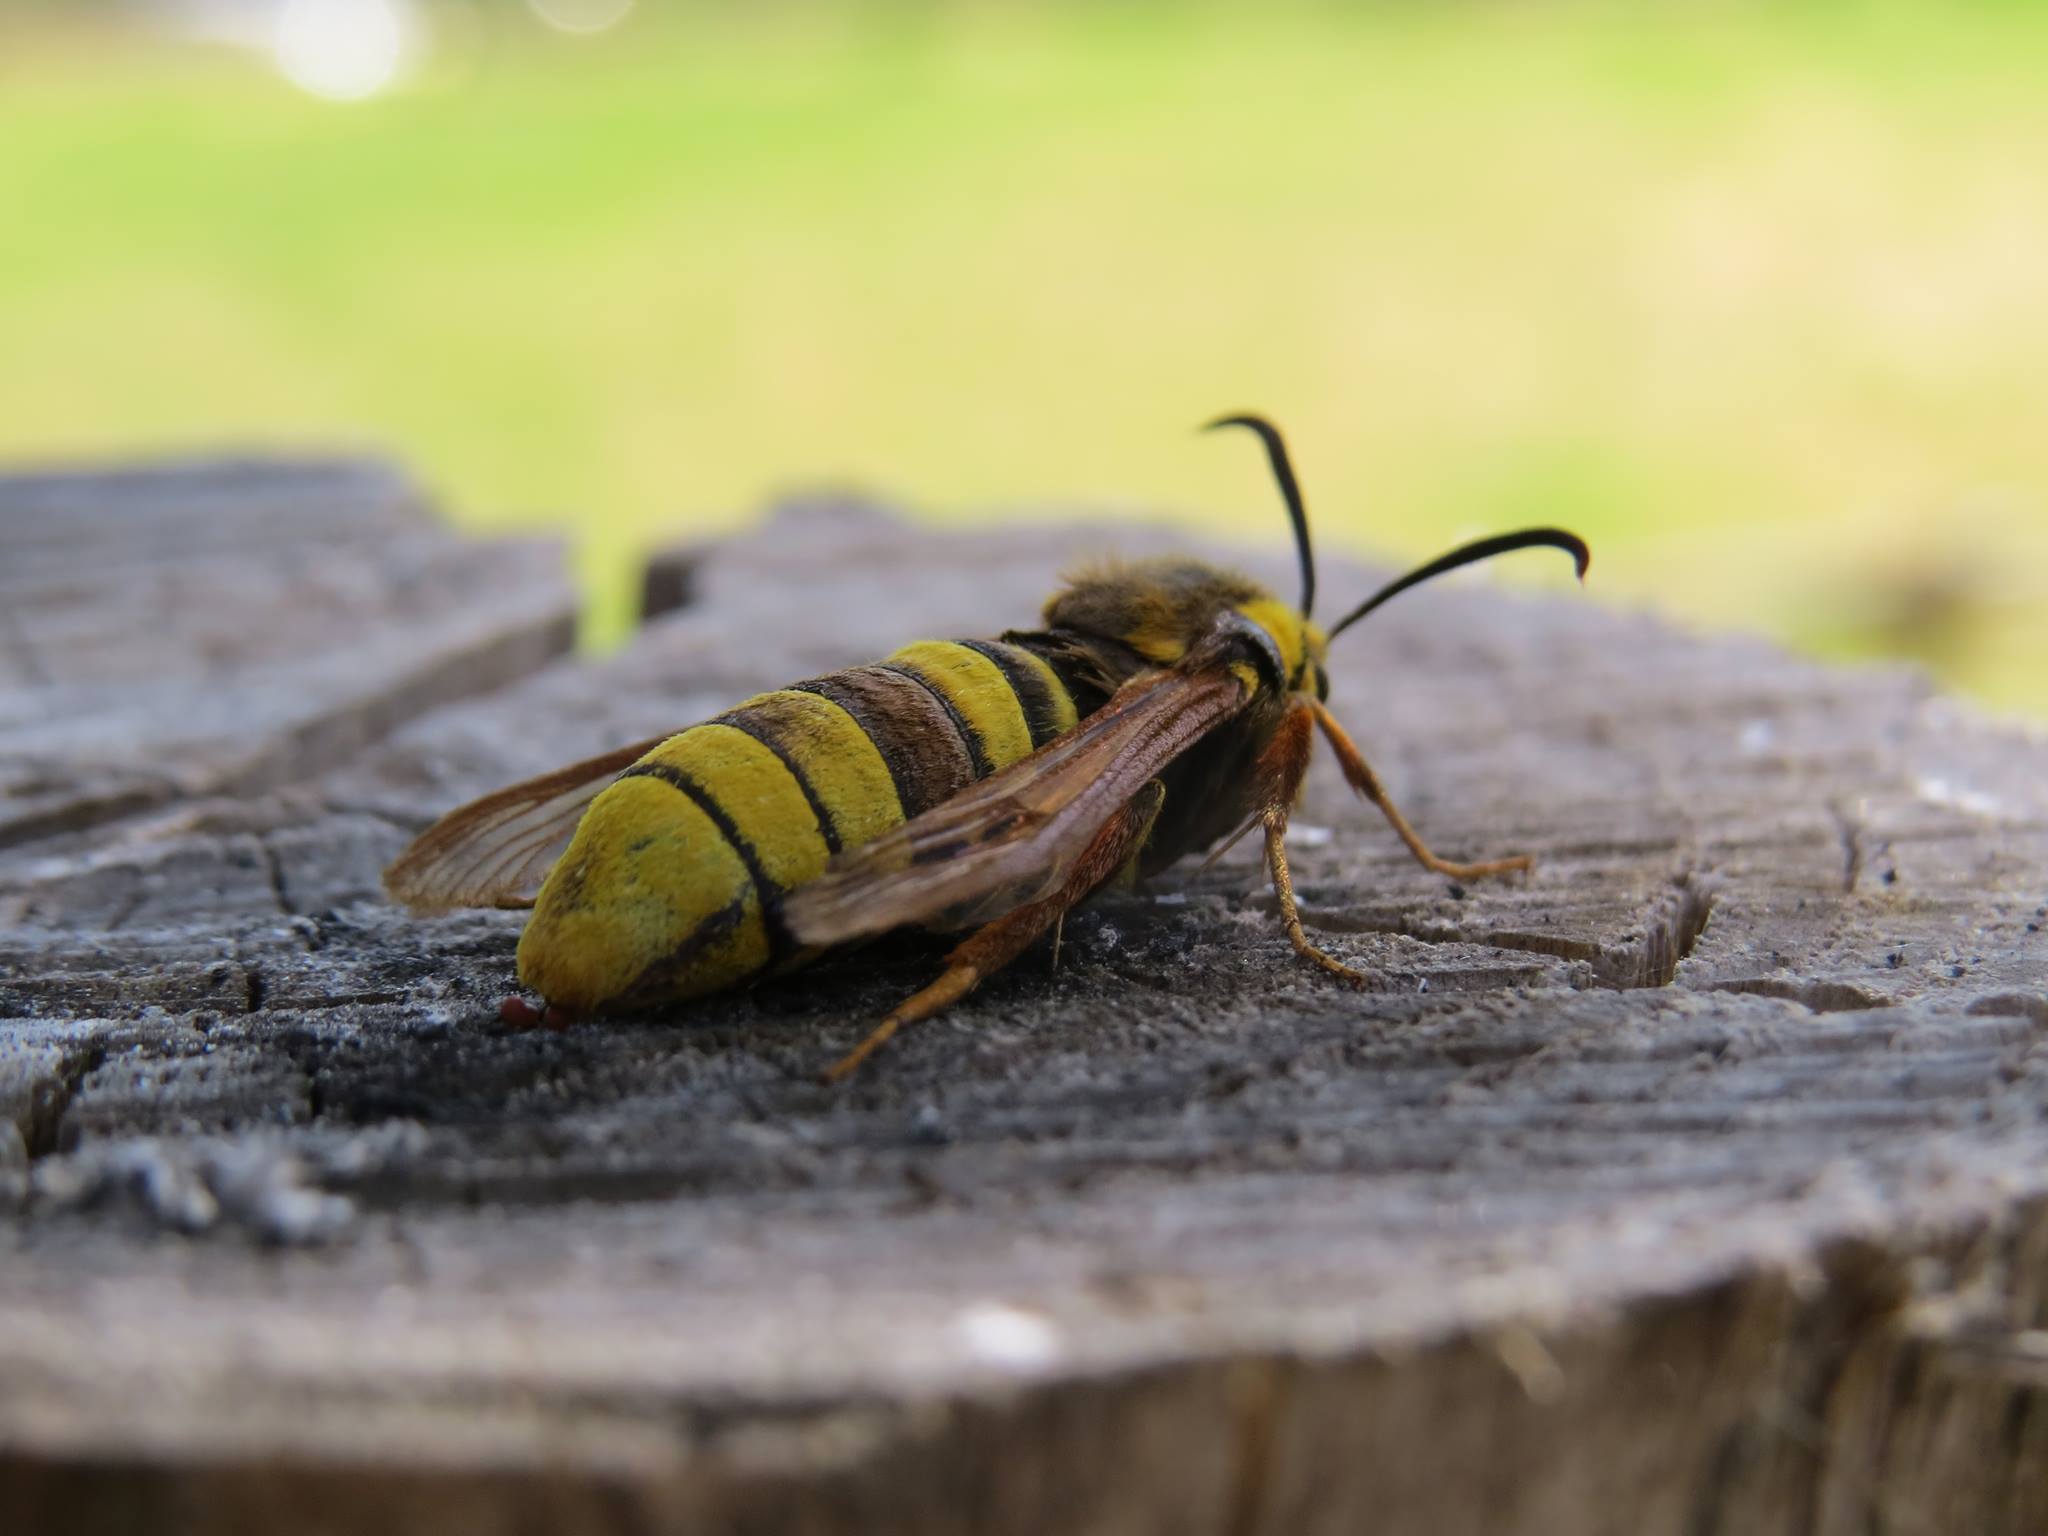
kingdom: Animalia
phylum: Arthropoda
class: Insecta
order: Lepidoptera
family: Sesiidae
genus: Sesia
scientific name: Sesia apiformis
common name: Hornet moth
